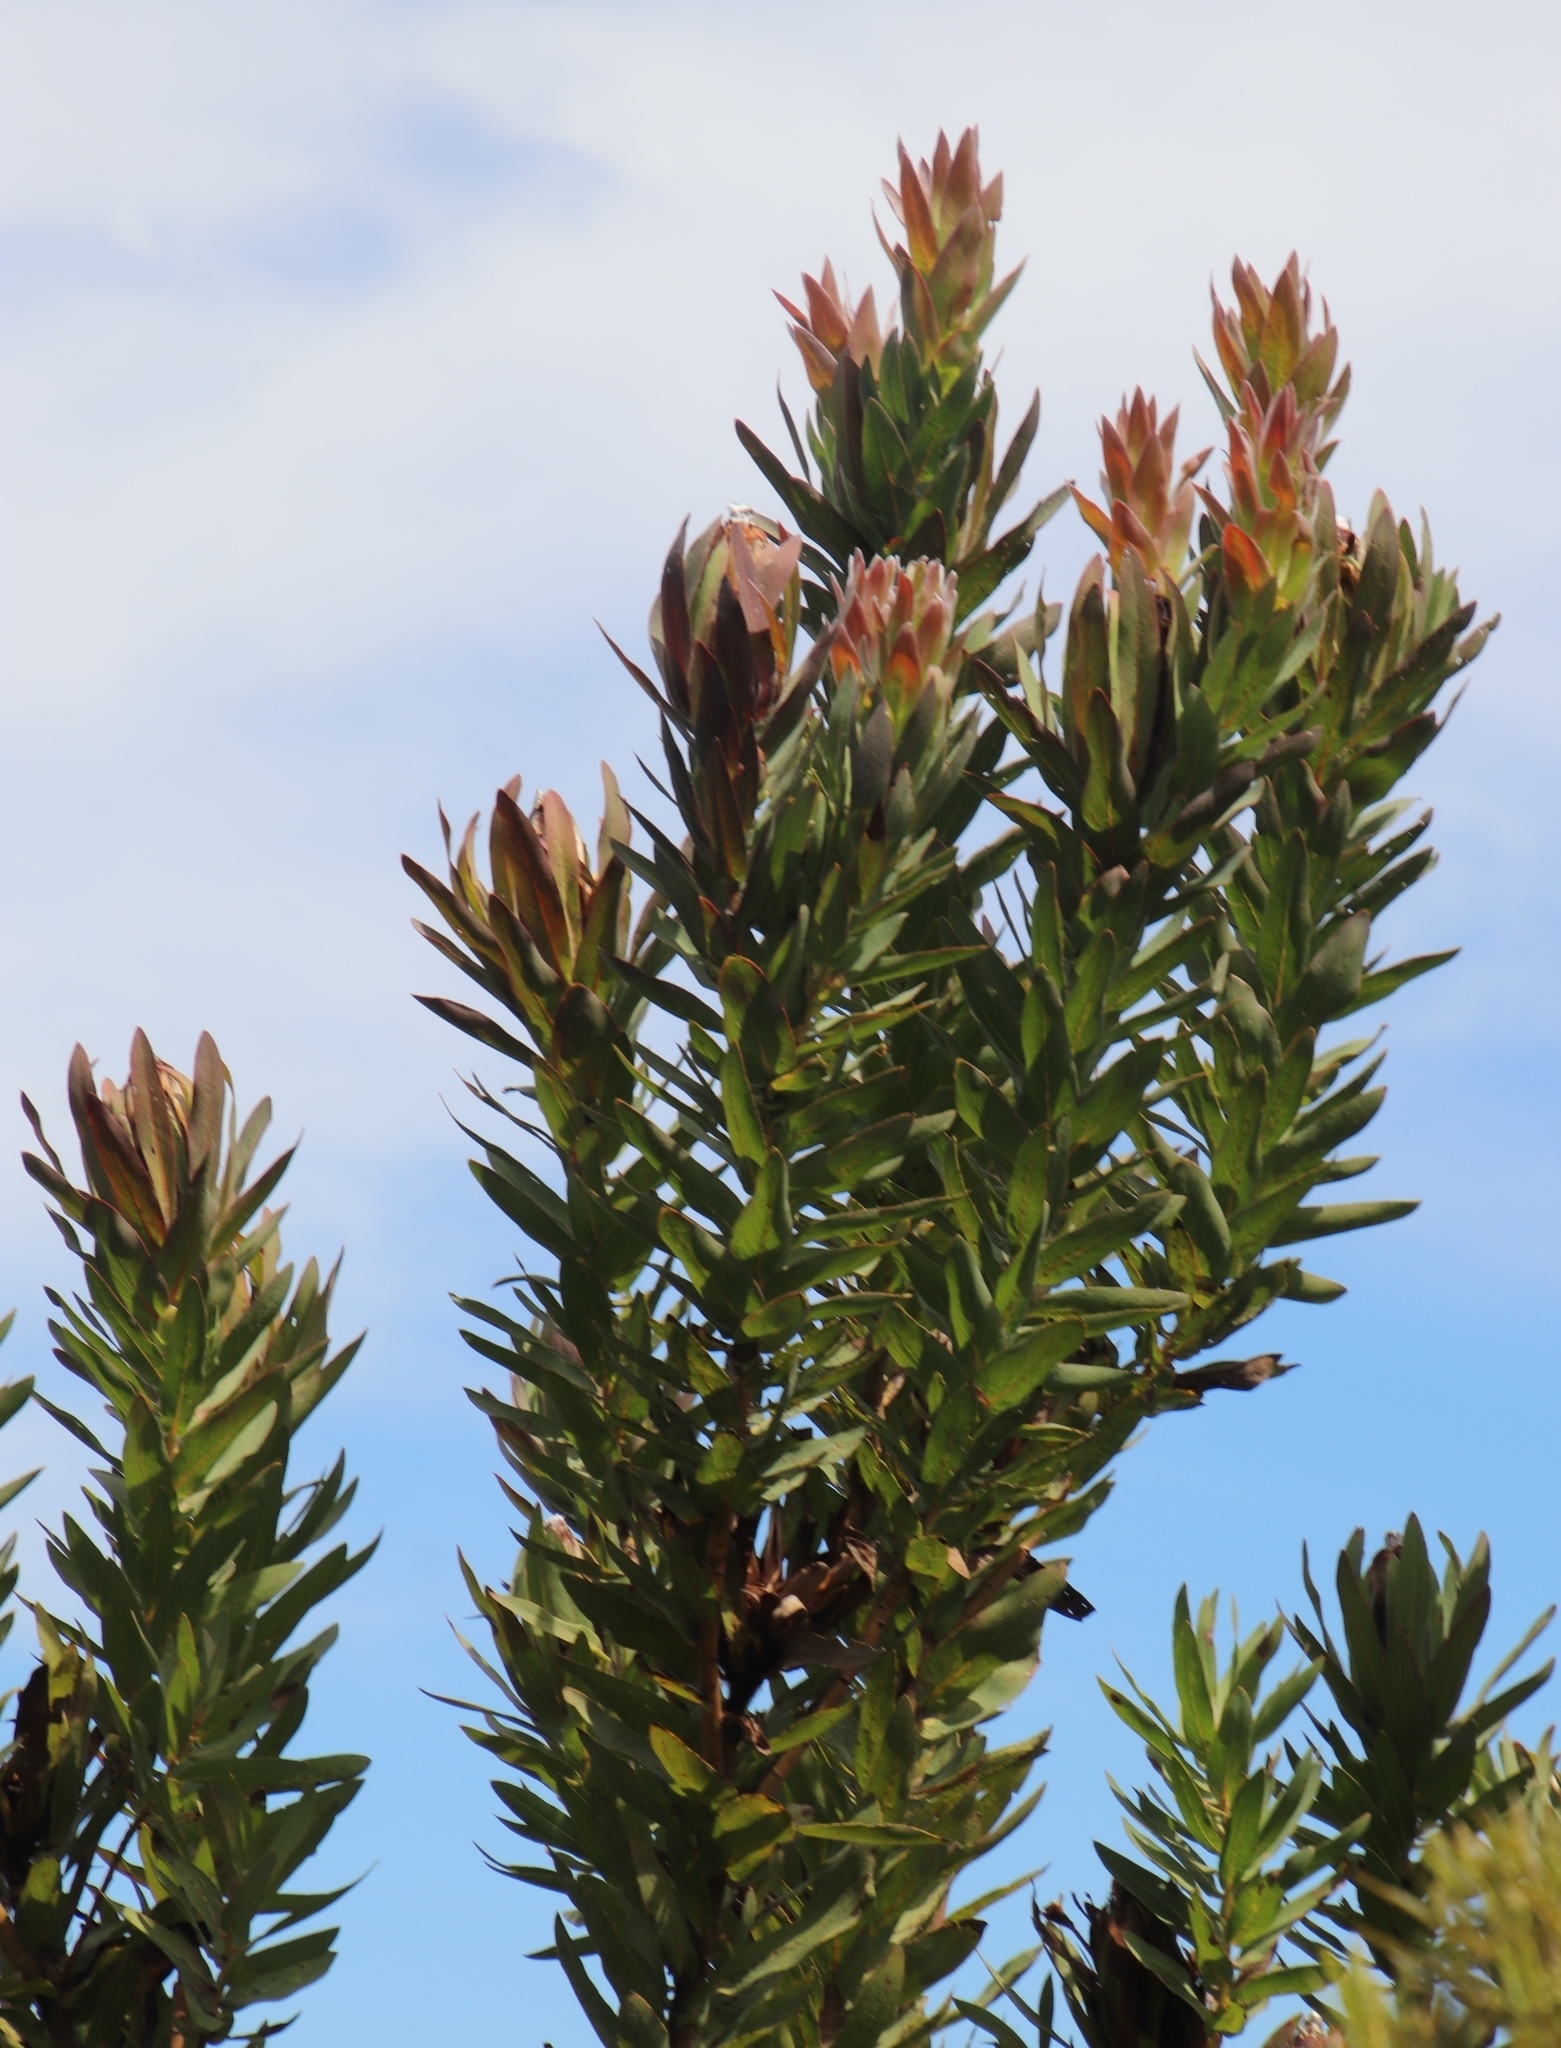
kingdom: Plantae
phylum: Tracheophyta
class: Magnoliopsida
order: Proteales
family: Proteaceae
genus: Protea
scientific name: Protea coronata
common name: Green sugarbush
